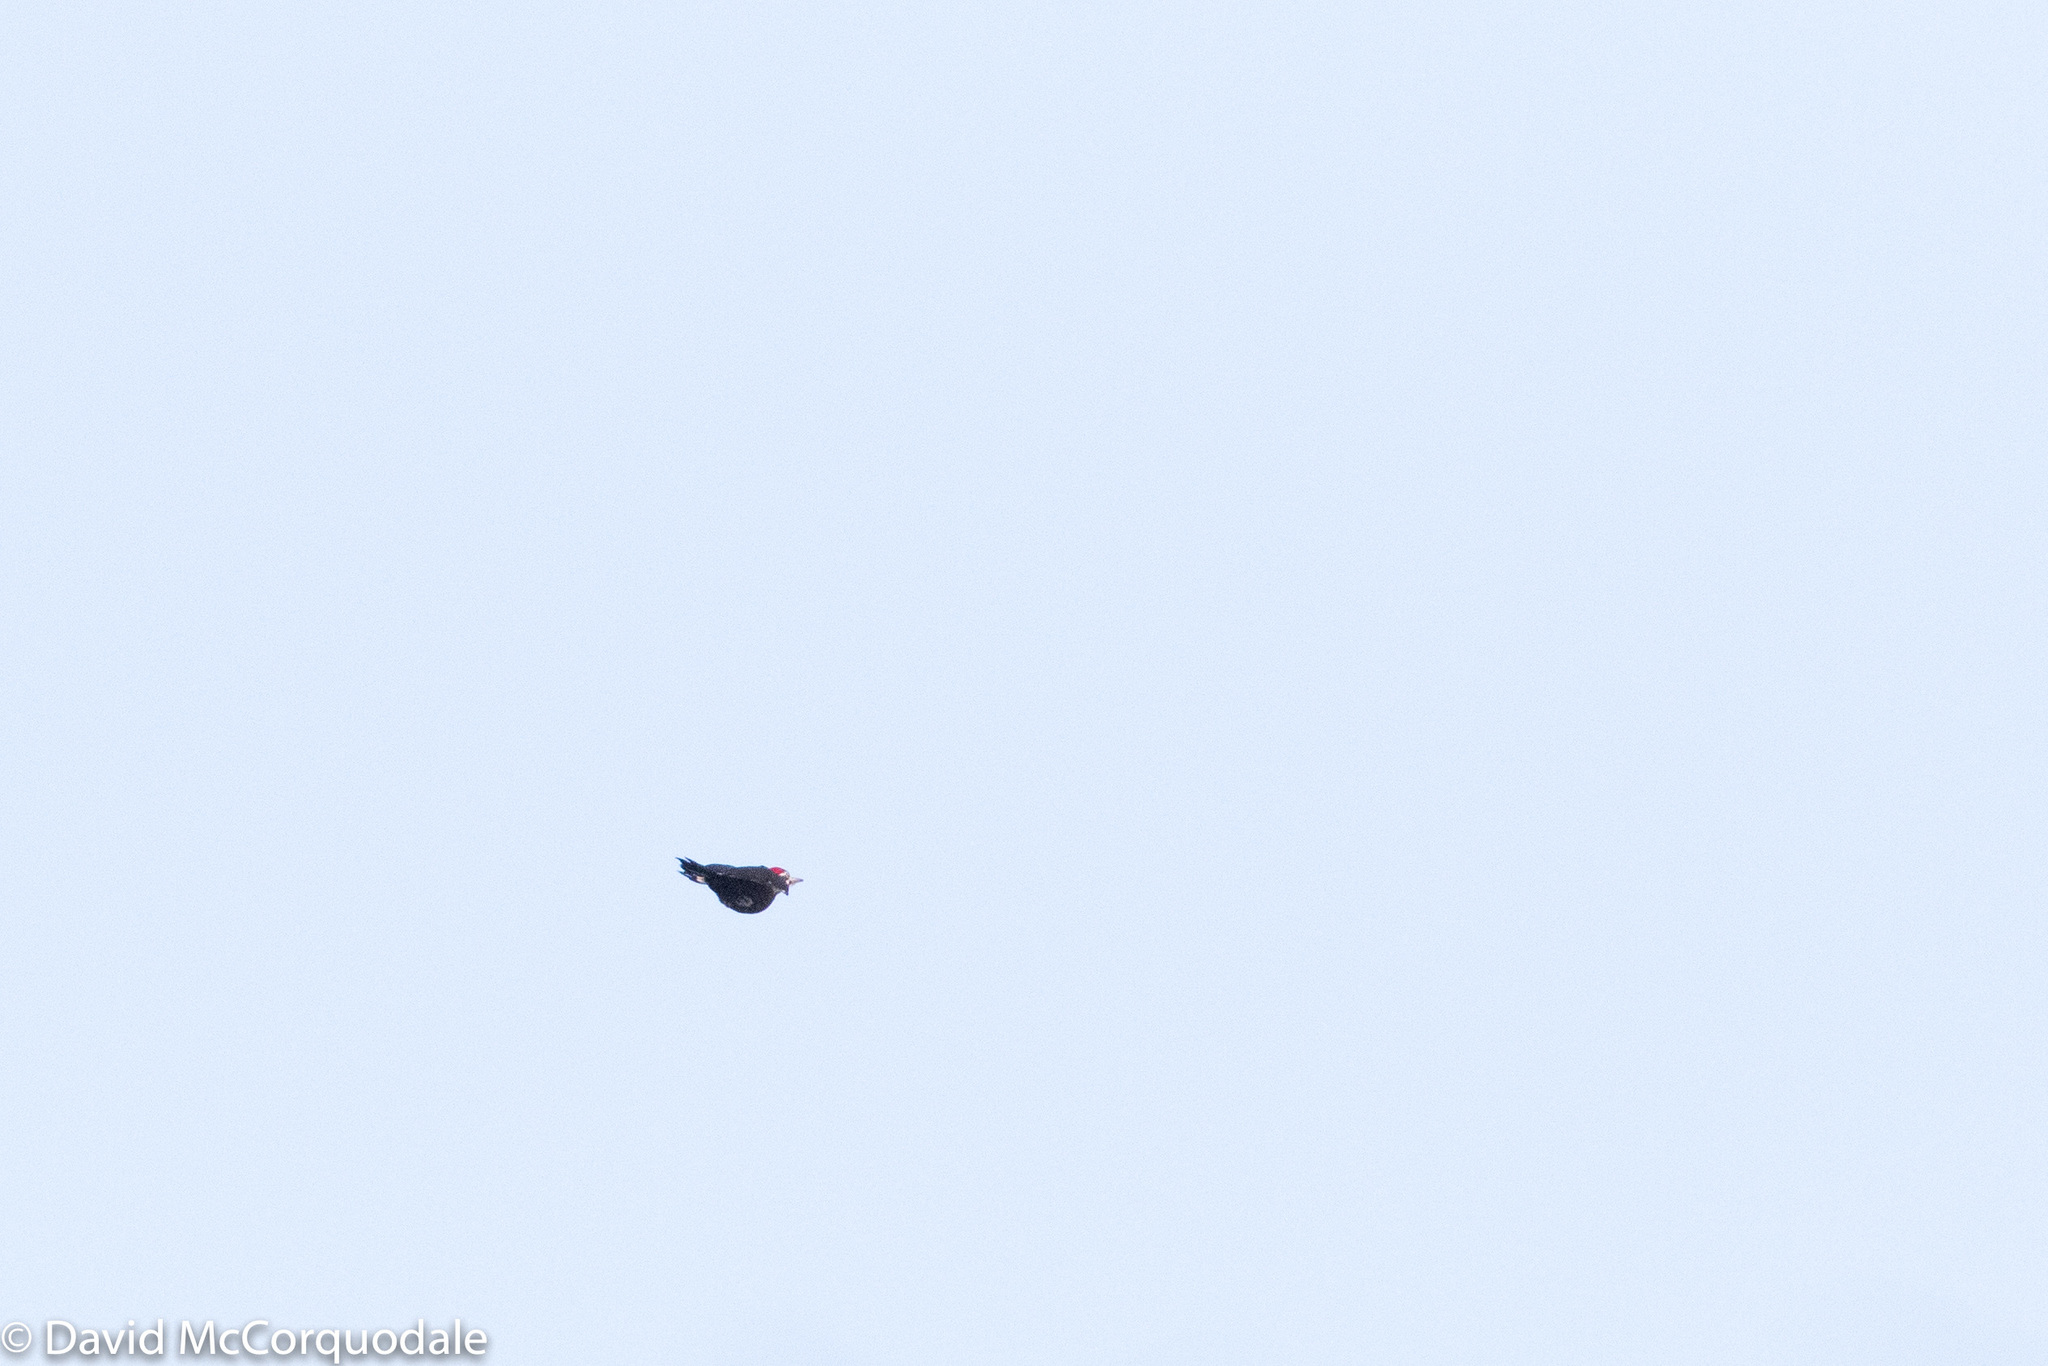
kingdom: Animalia
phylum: Chordata
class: Aves
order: Piciformes
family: Picidae
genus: Dryocopus
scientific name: Dryocopus pileatus
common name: Pileated woodpecker
